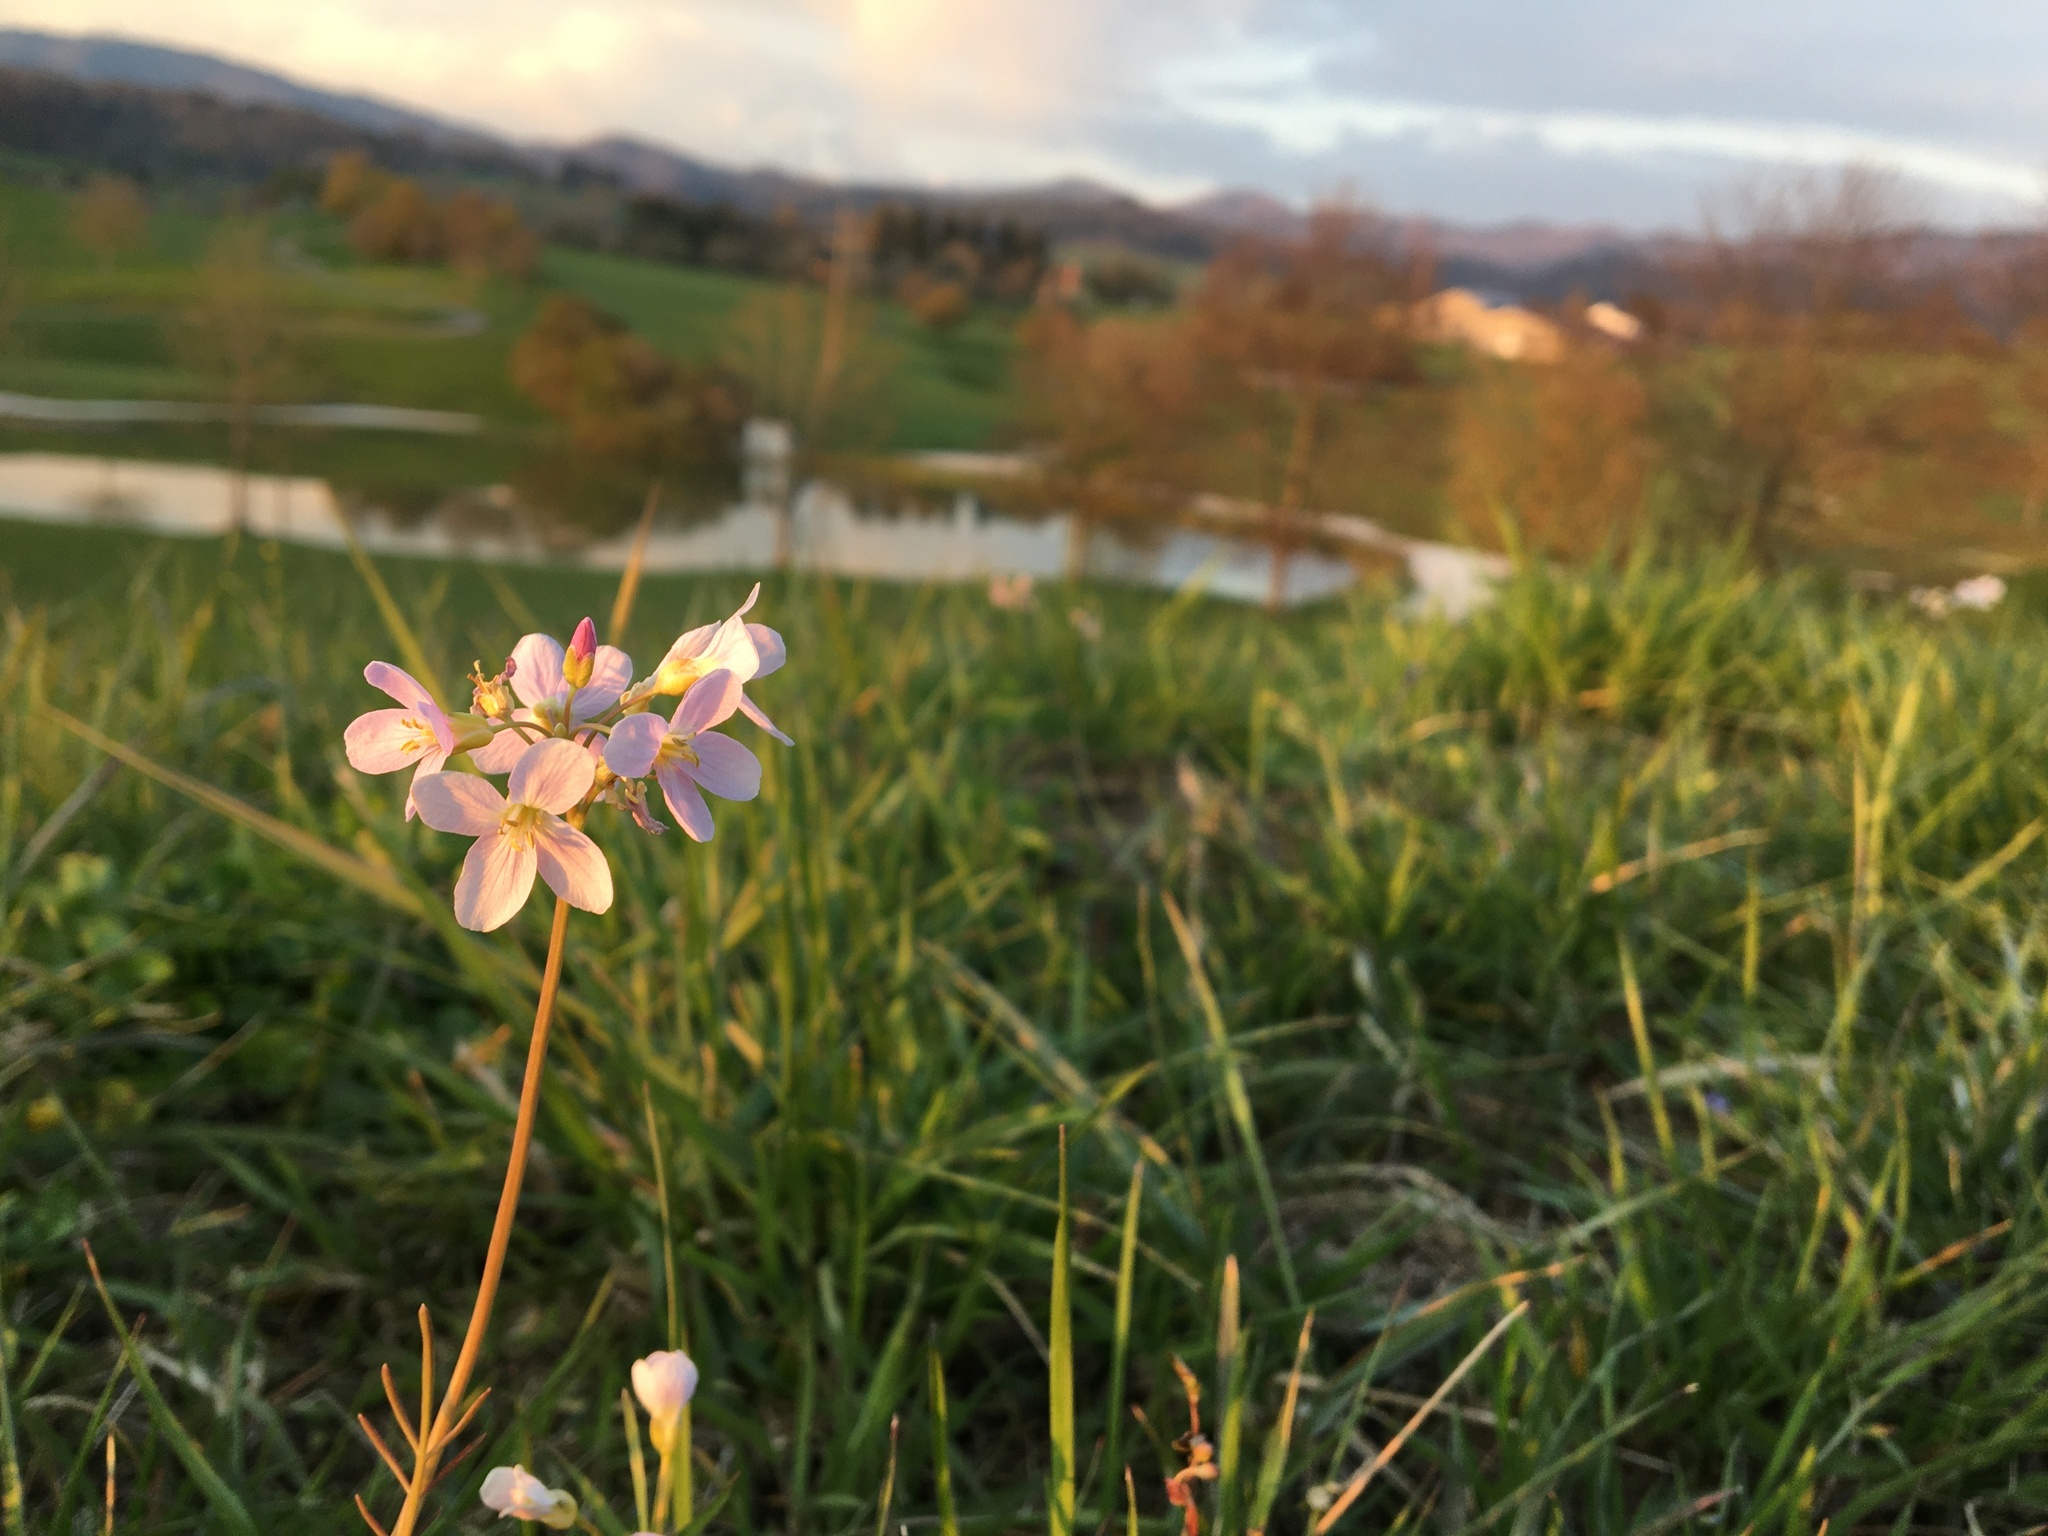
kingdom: Plantae
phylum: Tracheophyta
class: Magnoliopsida
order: Brassicales
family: Brassicaceae
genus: Cardamine
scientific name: Cardamine pratensis
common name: Cuckoo flower
